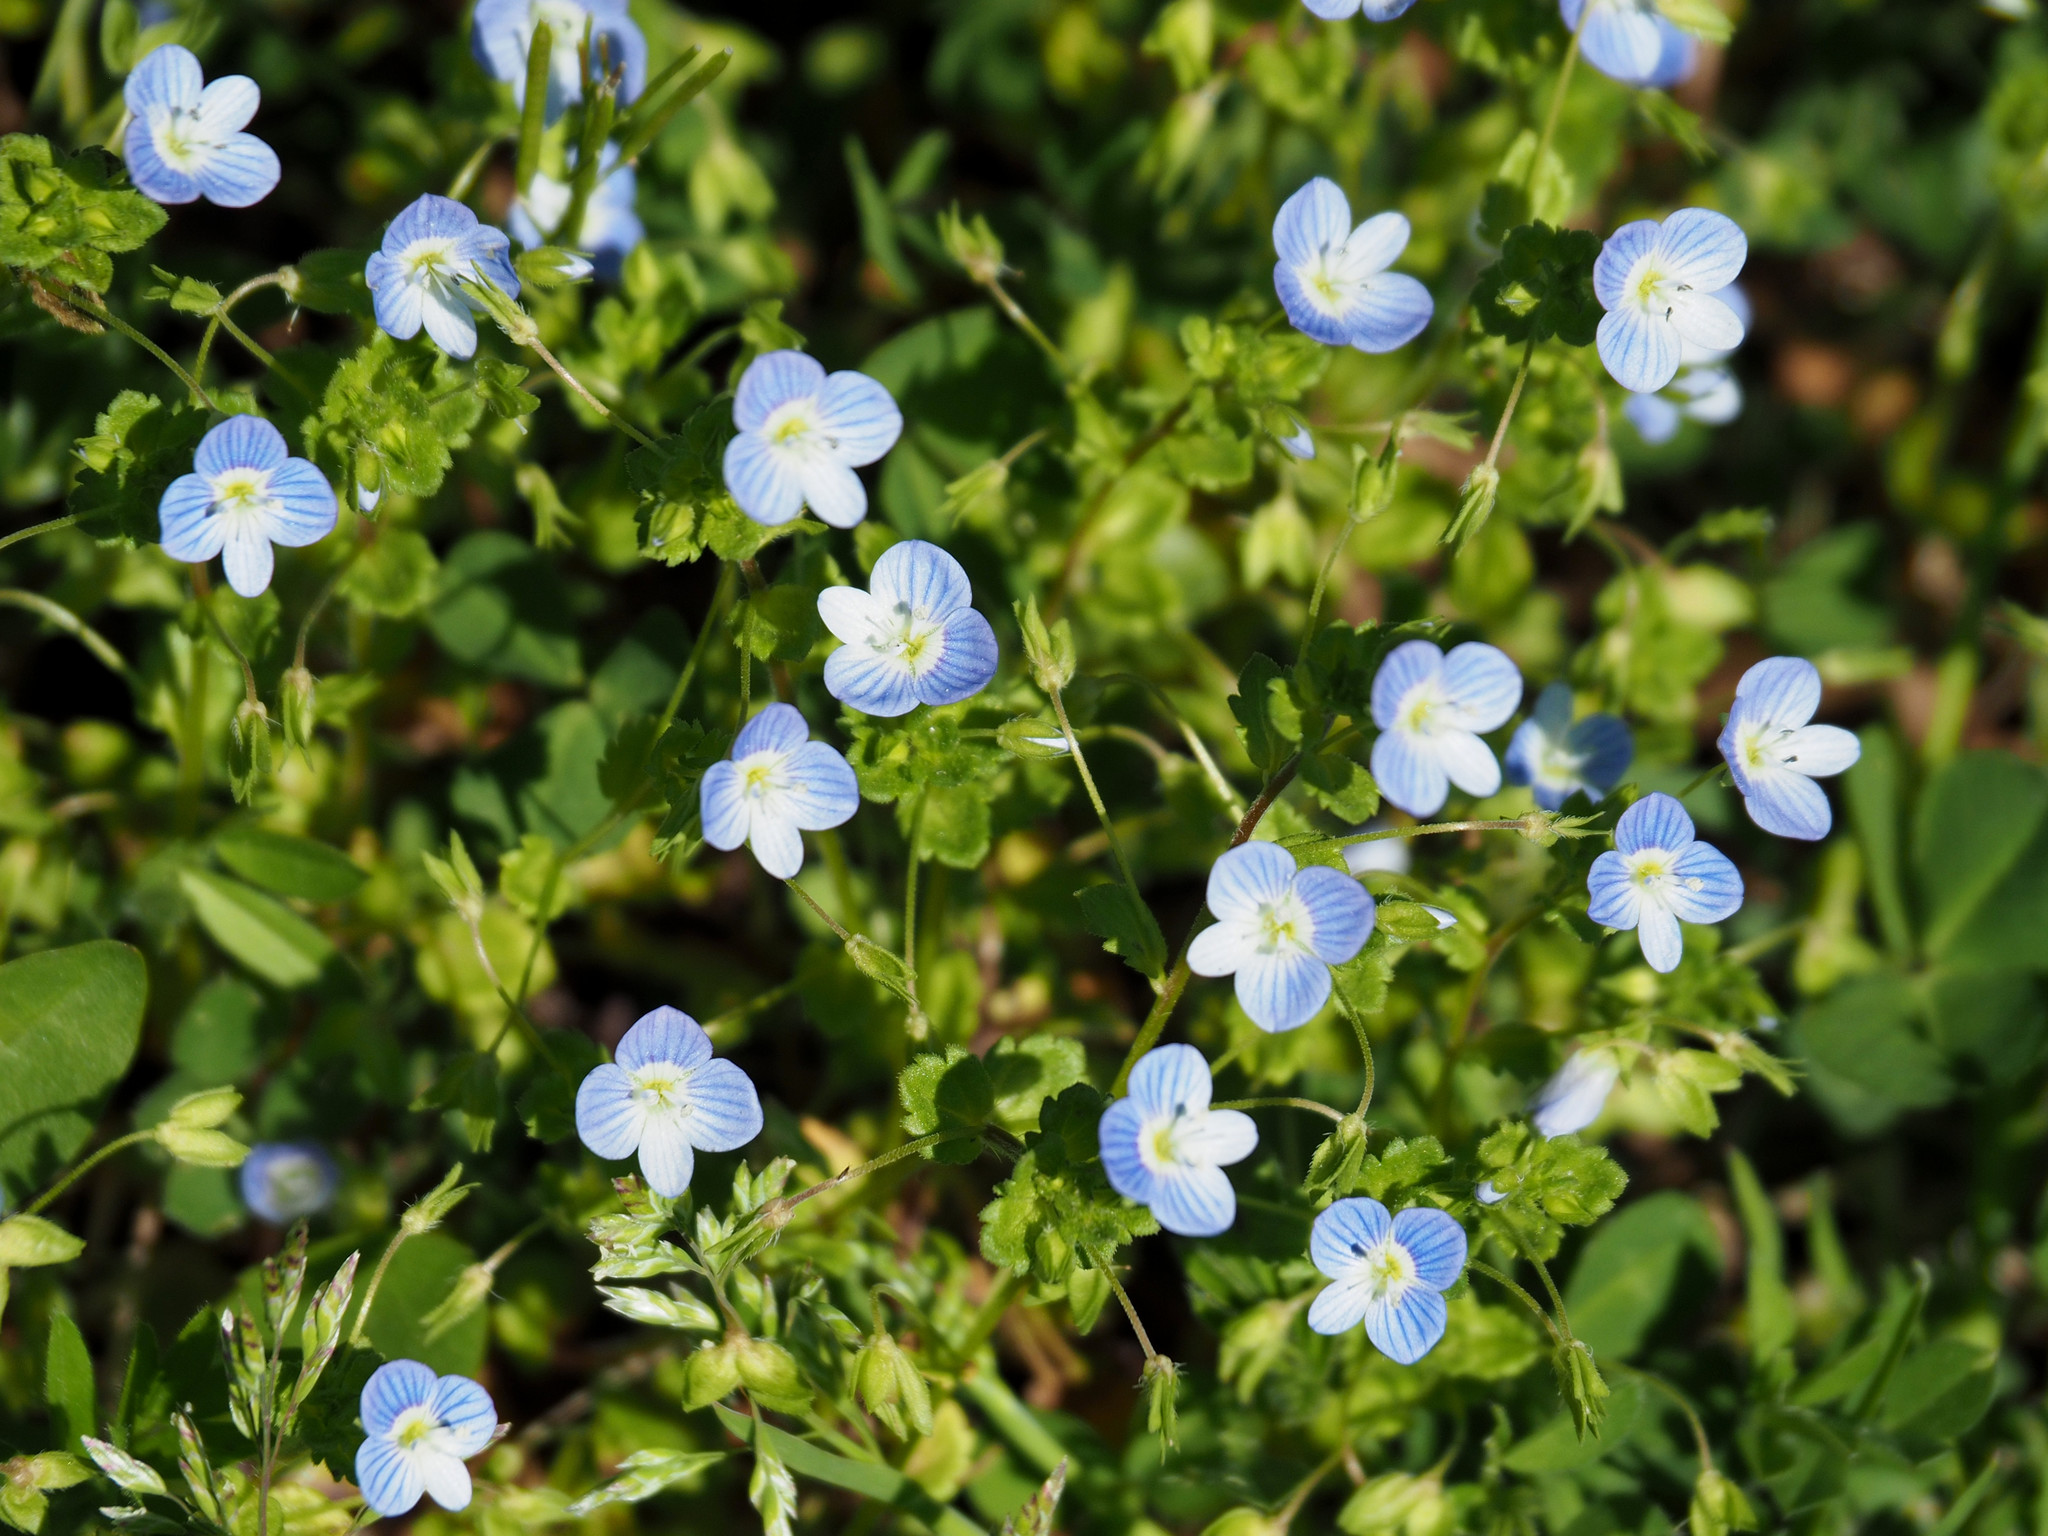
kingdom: Plantae
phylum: Tracheophyta
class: Magnoliopsida
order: Lamiales
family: Plantaginaceae
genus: Veronica
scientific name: Veronica persica
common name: Common field-speedwell
